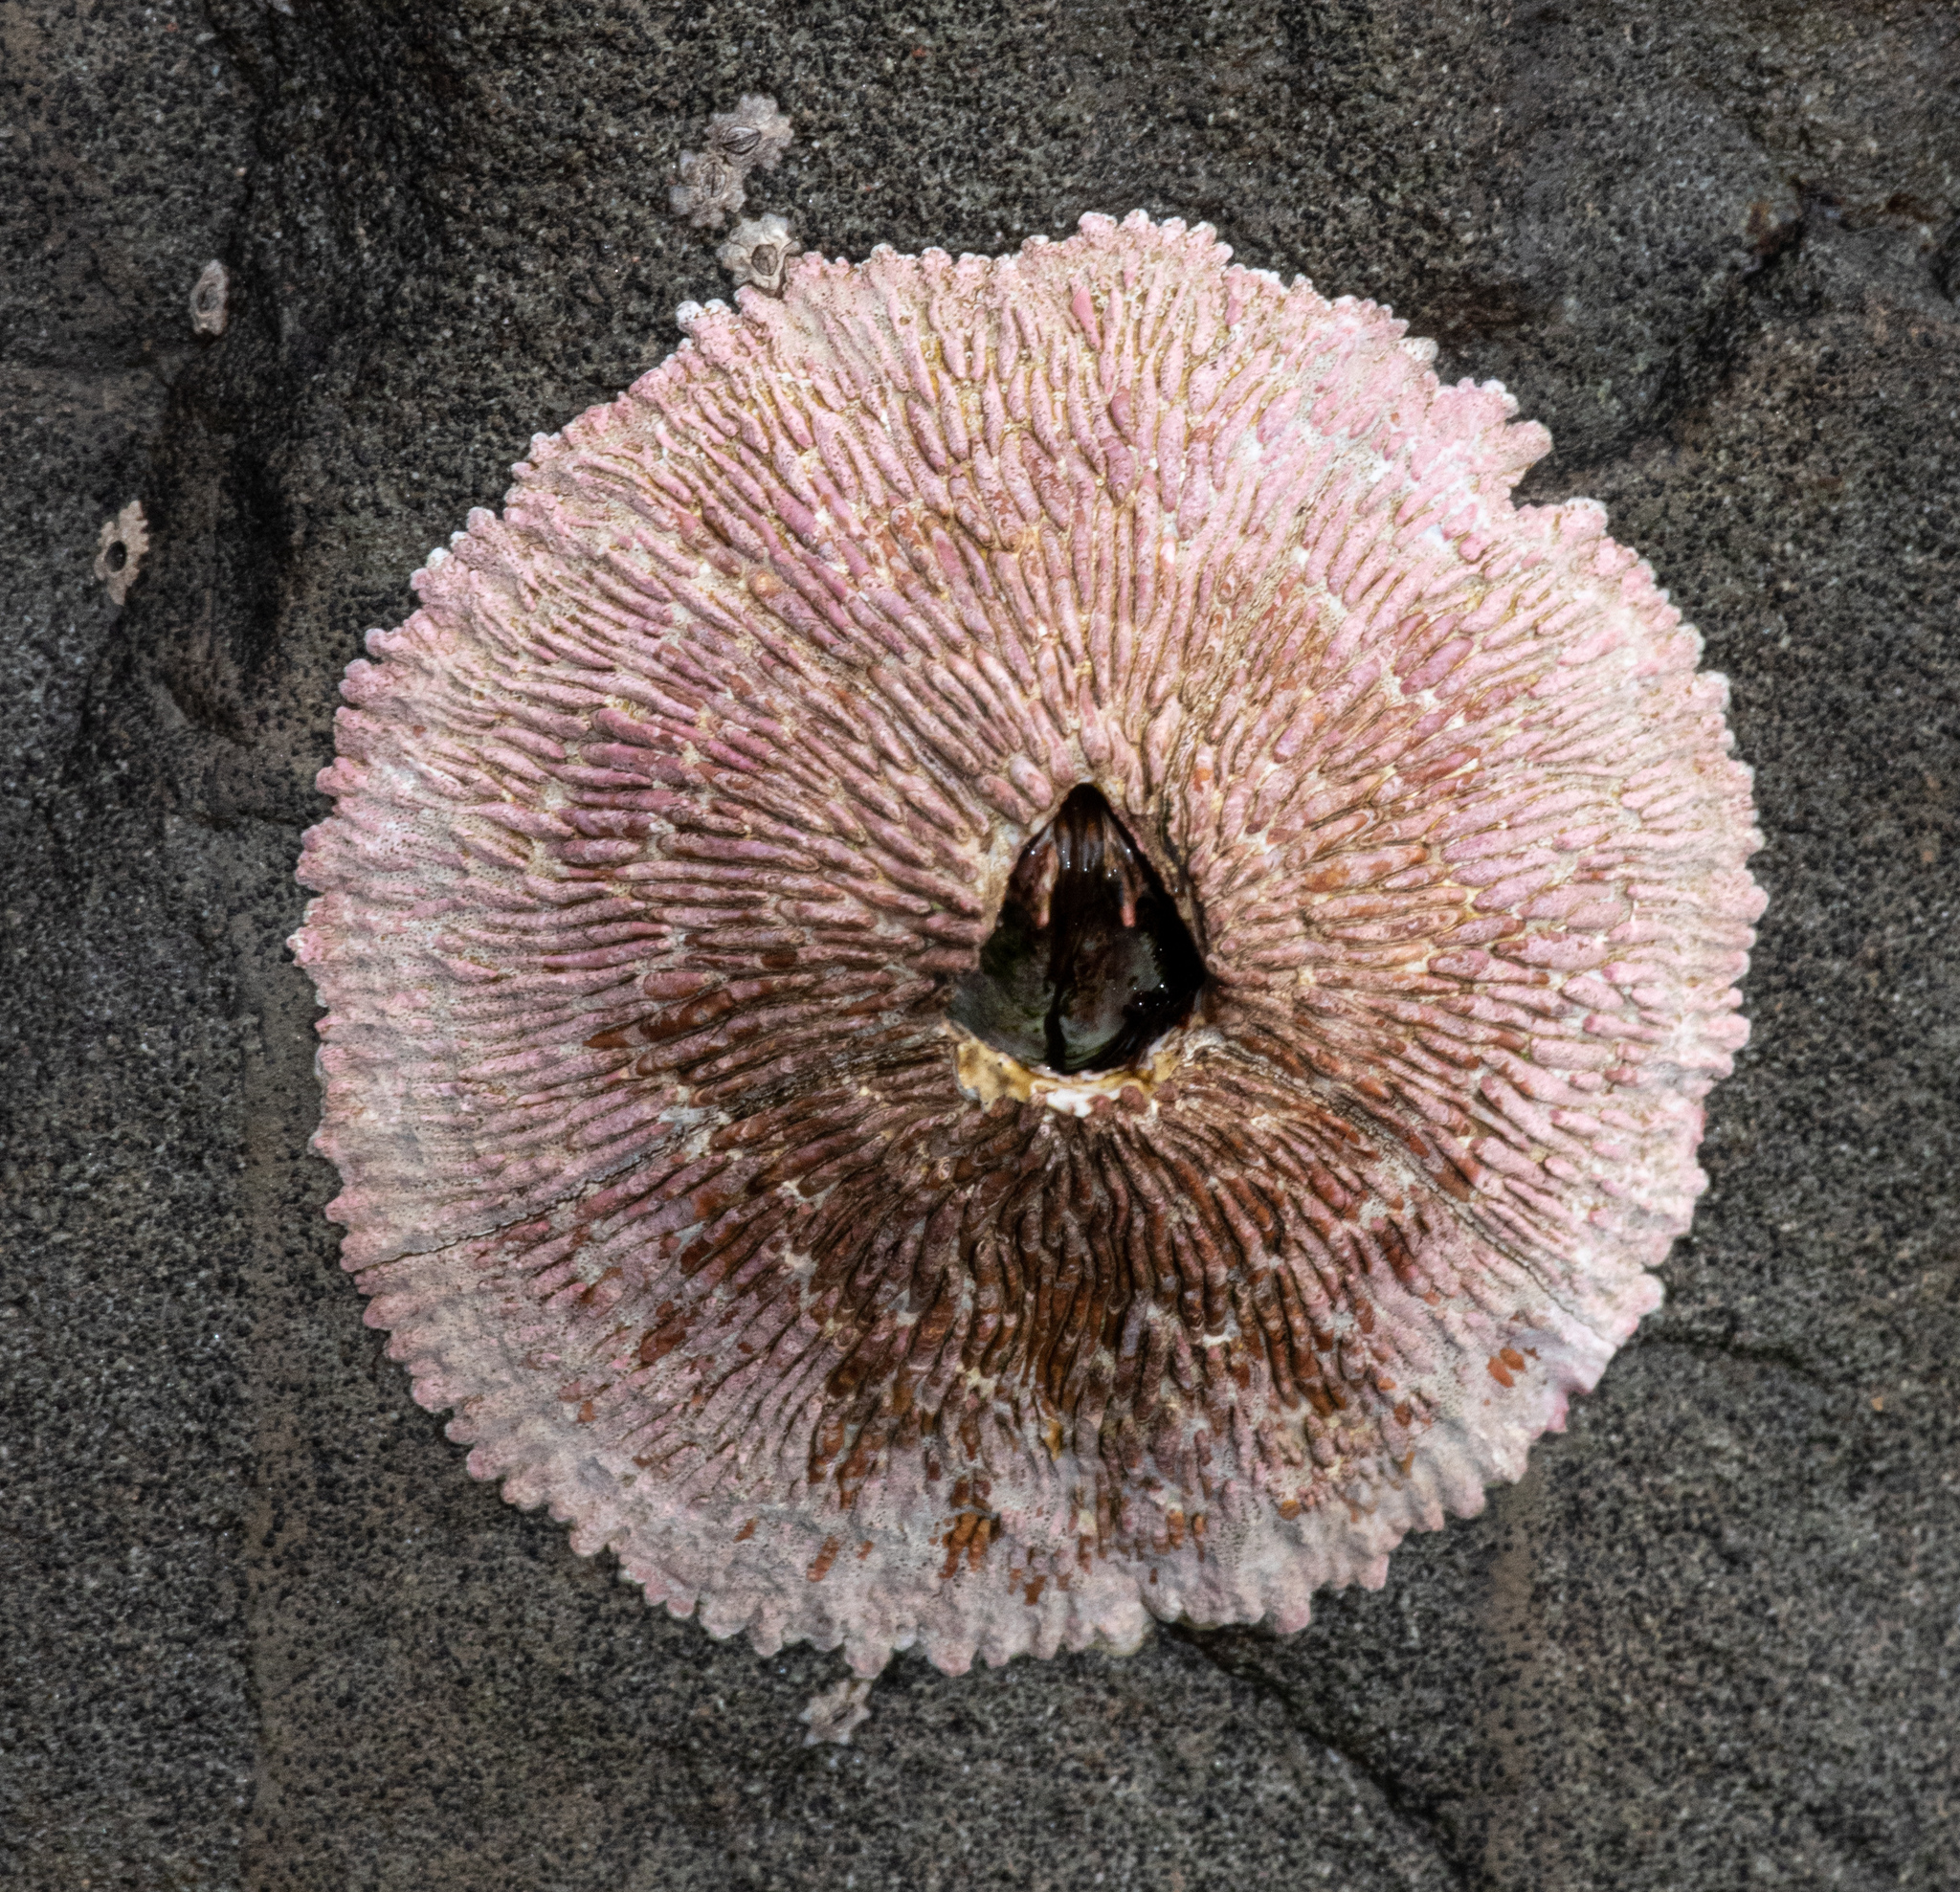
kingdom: Animalia
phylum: Arthropoda
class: Maxillopoda
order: Sessilia
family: Tetraclitidae
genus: Tetraclita
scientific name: Tetraclita rubescens
